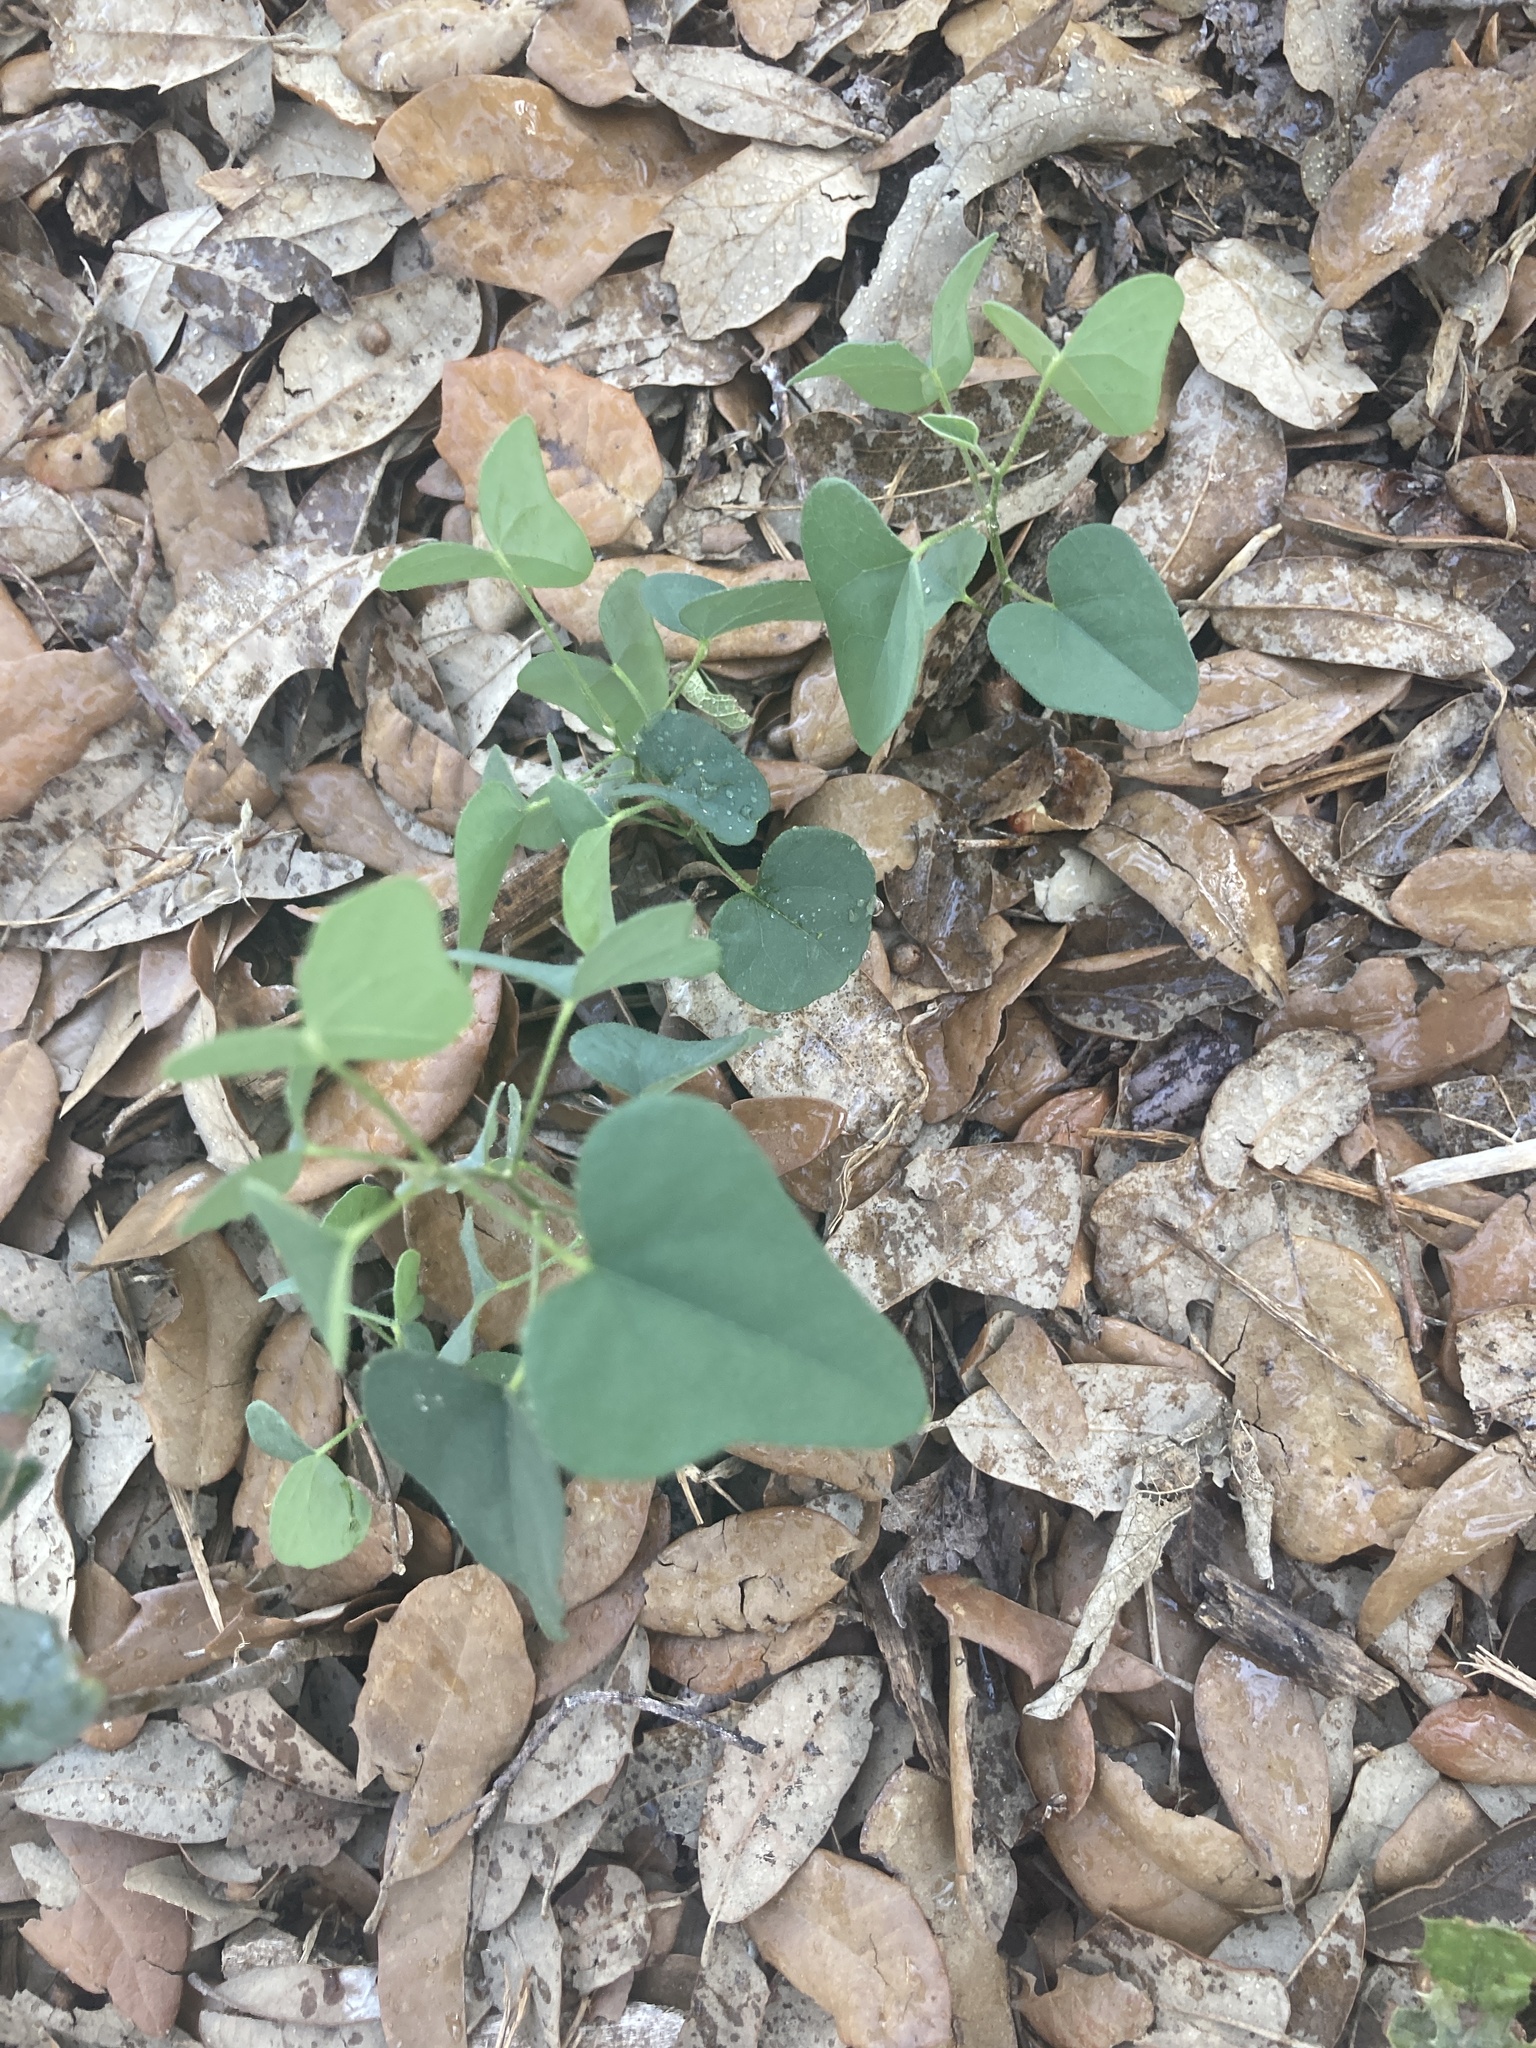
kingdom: Plantae
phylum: Tracheophyta
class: Magnoliopsida
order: Ranunculales
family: Menispermaceae
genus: Cocculus
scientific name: Cocculus carolinus
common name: Carolina moonseed
